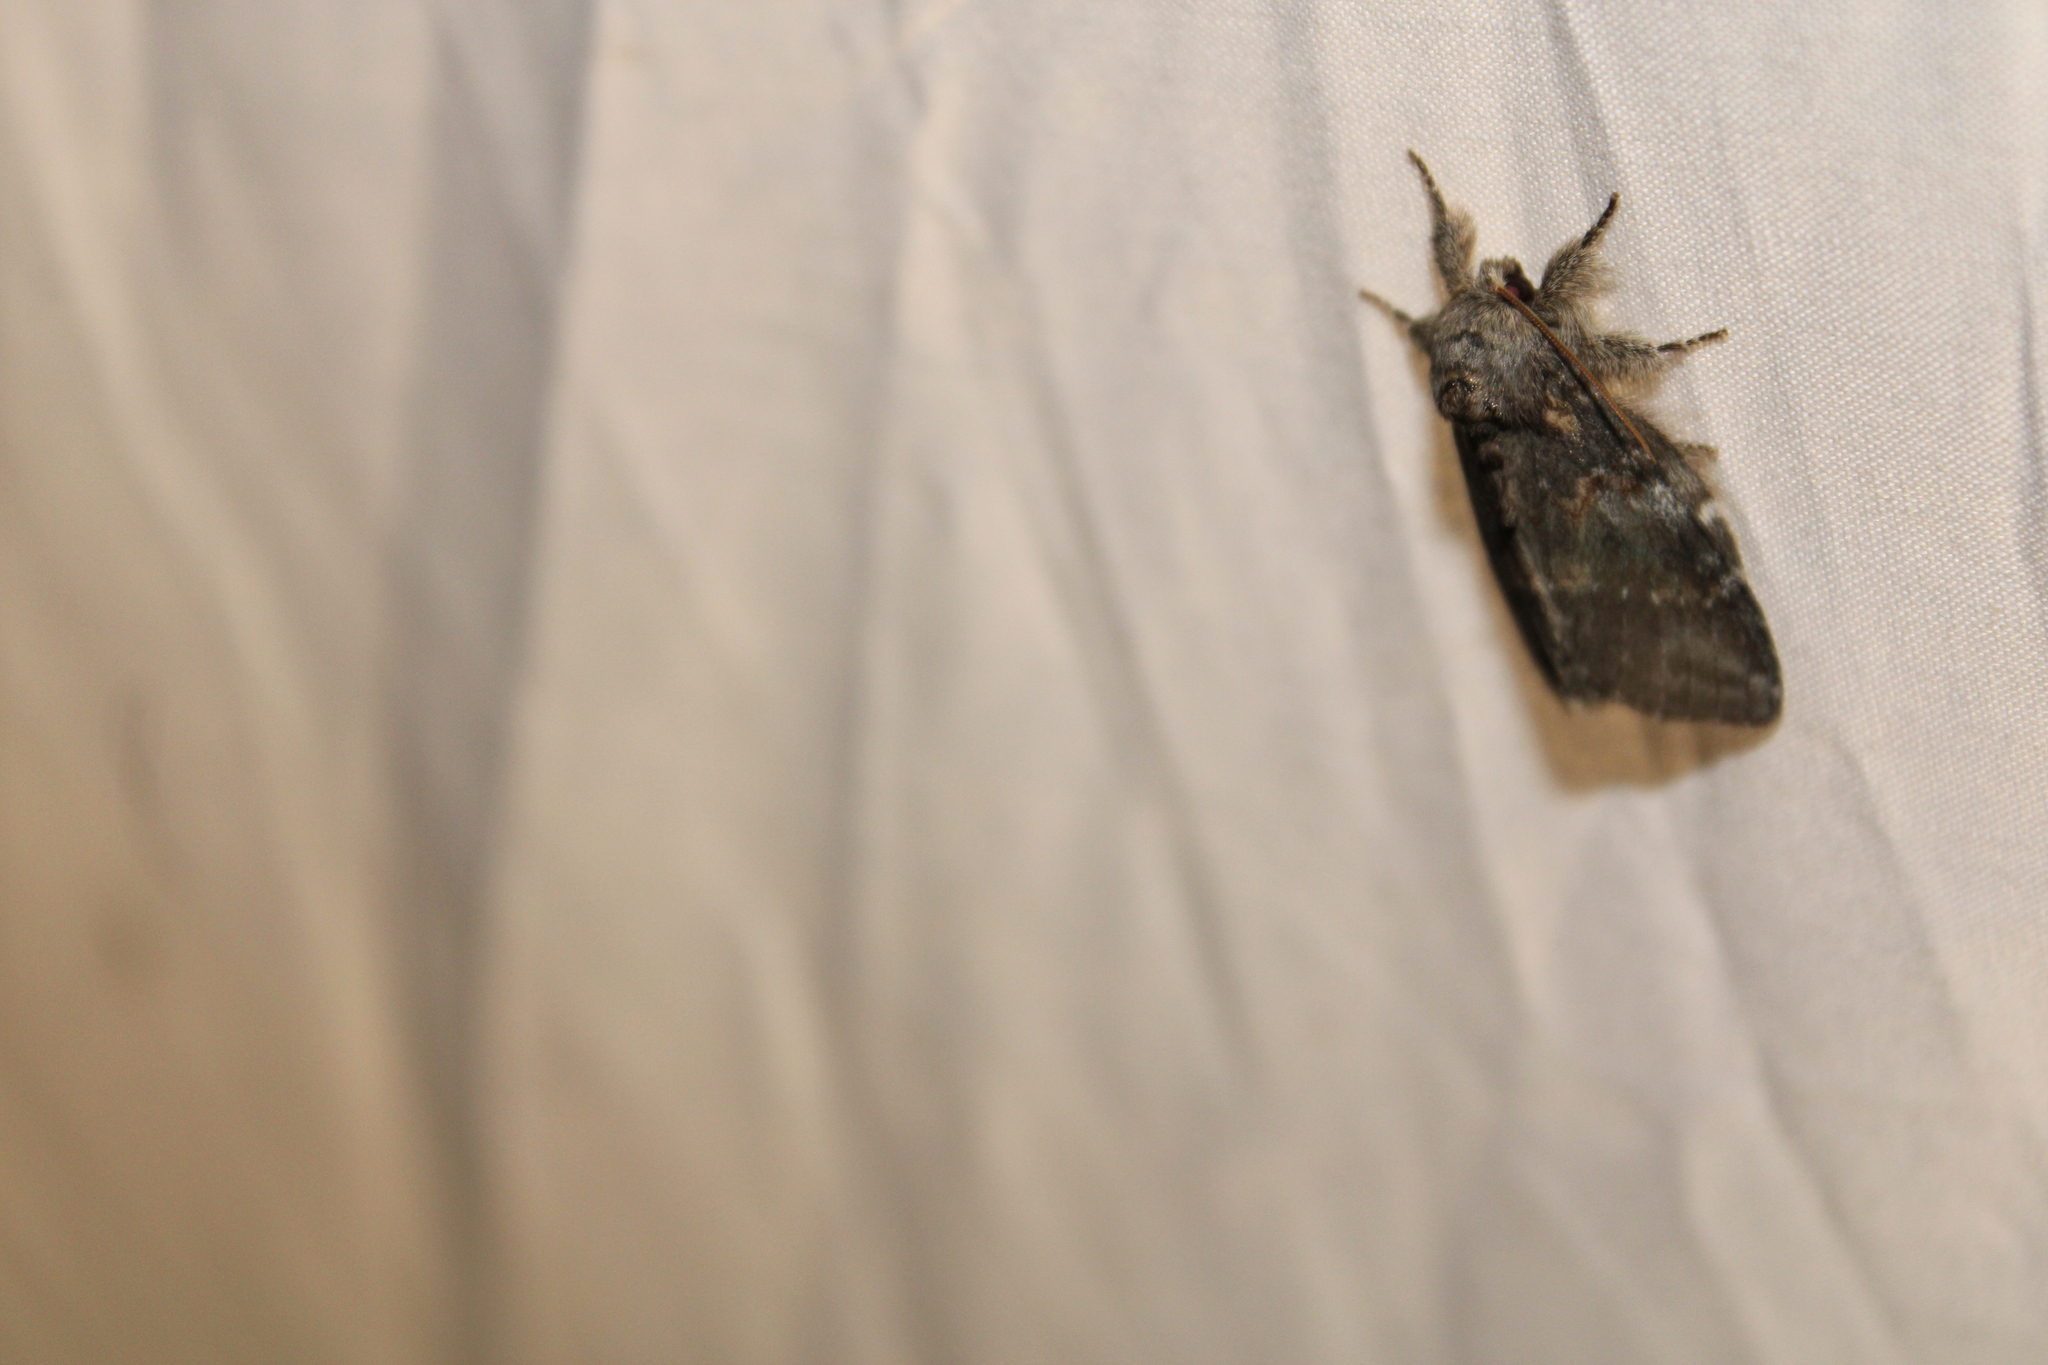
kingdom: Animalia
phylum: Arthropoda
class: Insecta
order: Lepidoptera
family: Notodontidae
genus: Peridea
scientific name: Peridea angulosa
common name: Angulose prominent
